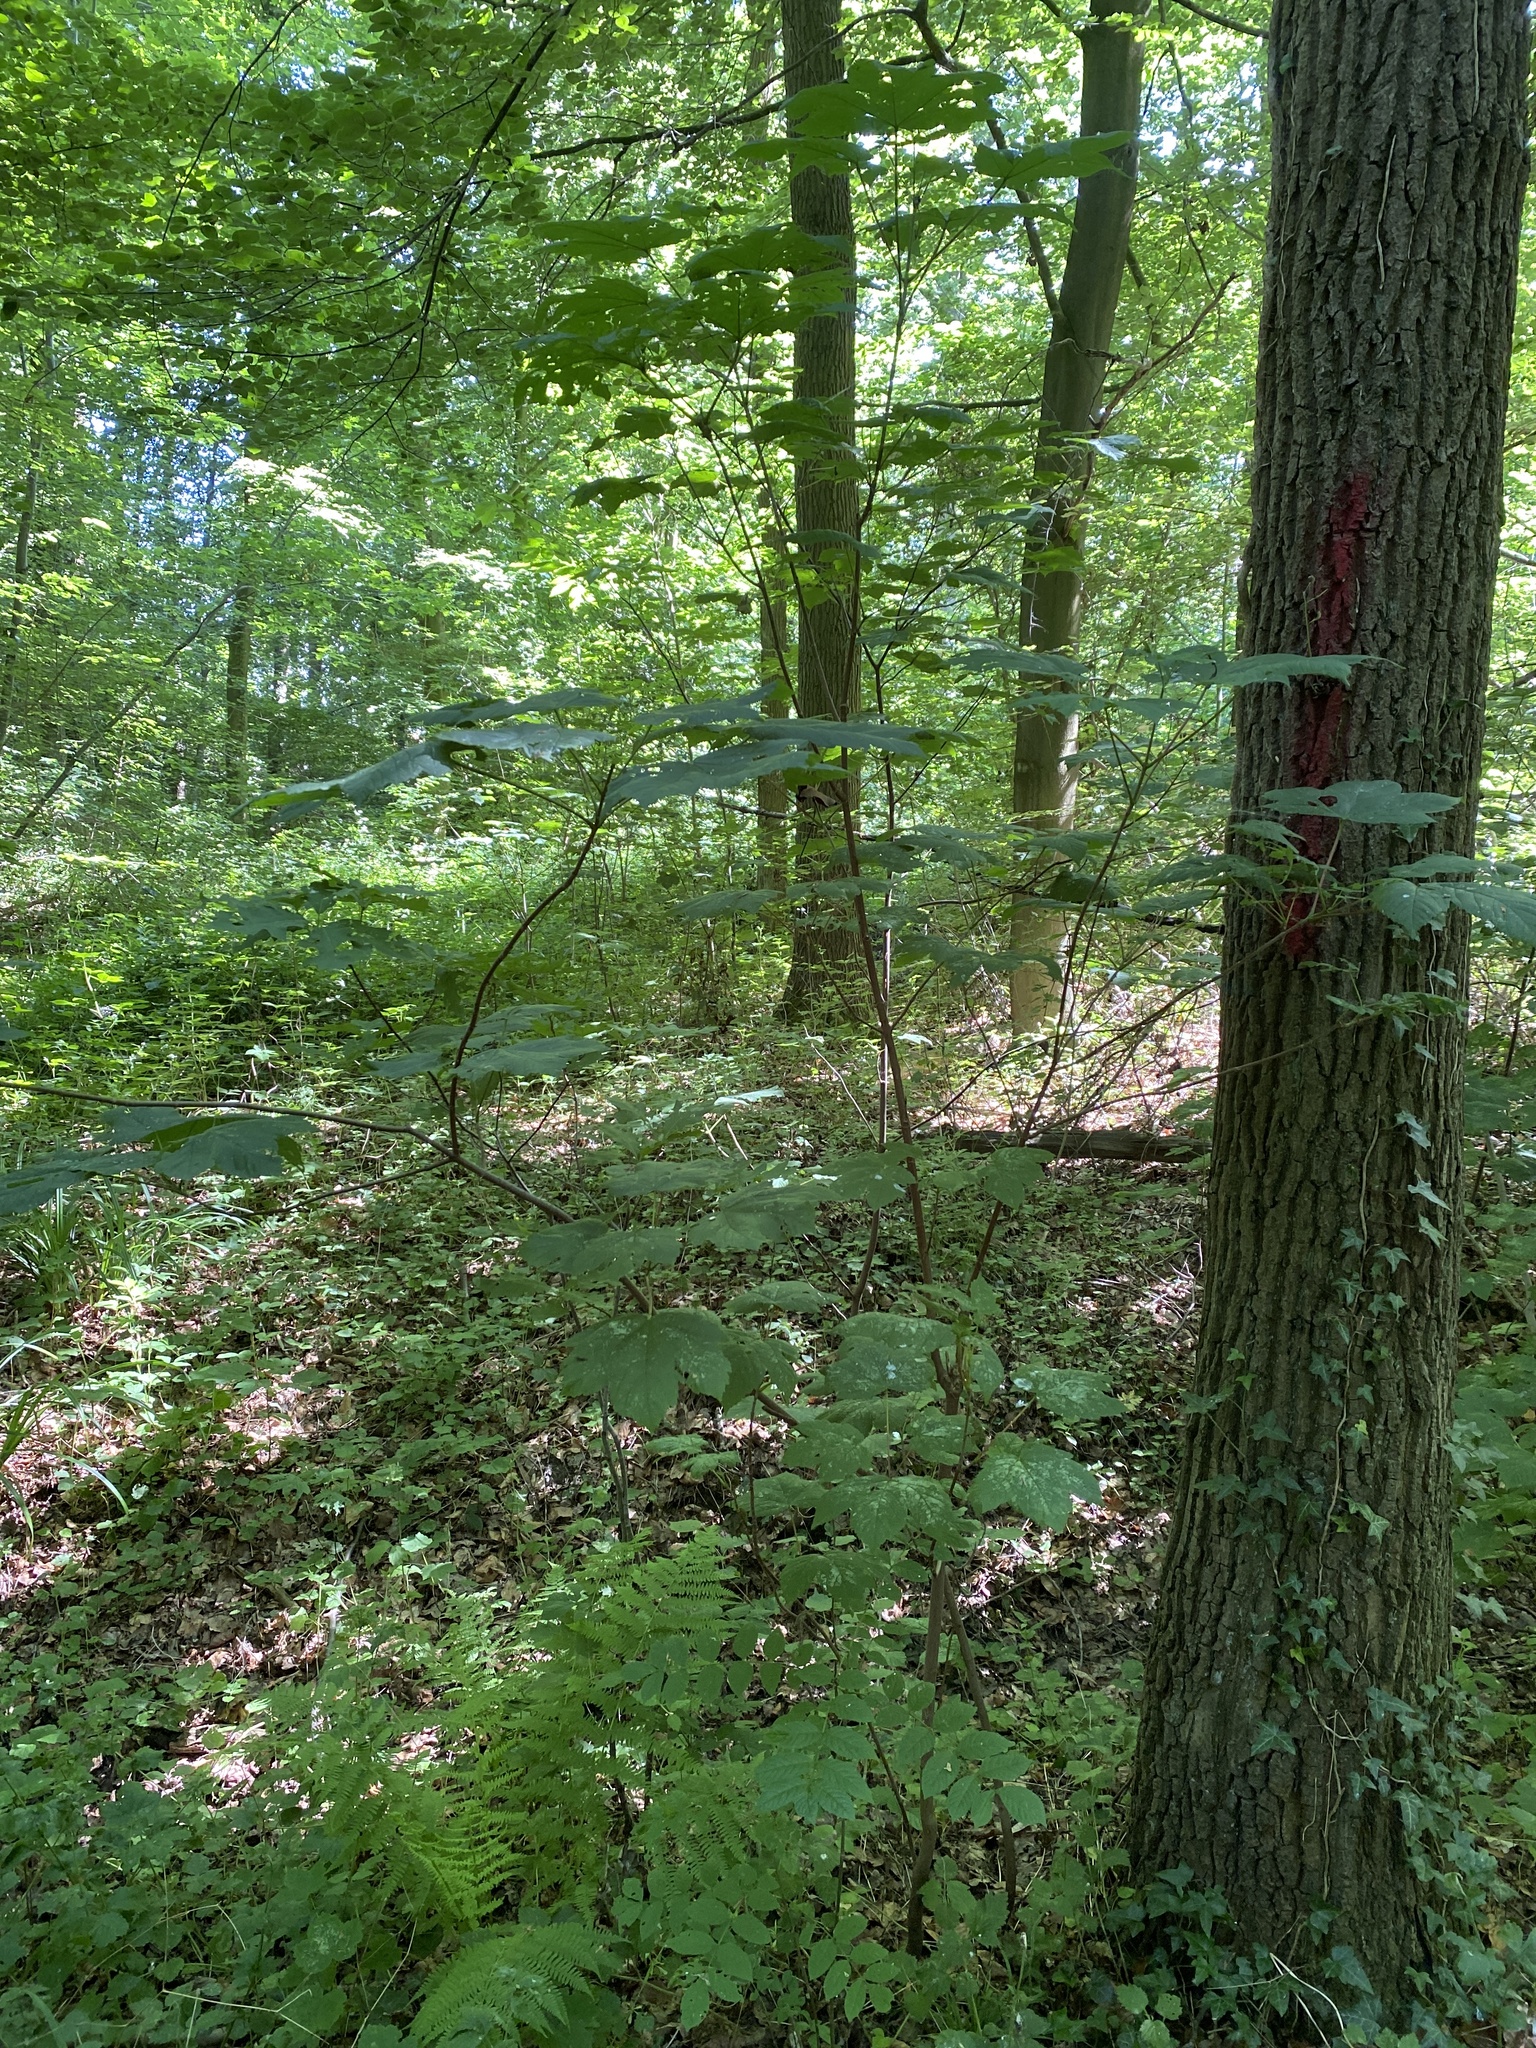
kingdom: Plantae
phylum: Tracheophyta
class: Magnoliopsida
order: Sapindales
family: Sapindaceae
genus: Acer
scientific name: Acer pseudoplatanus
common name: Sycamore
